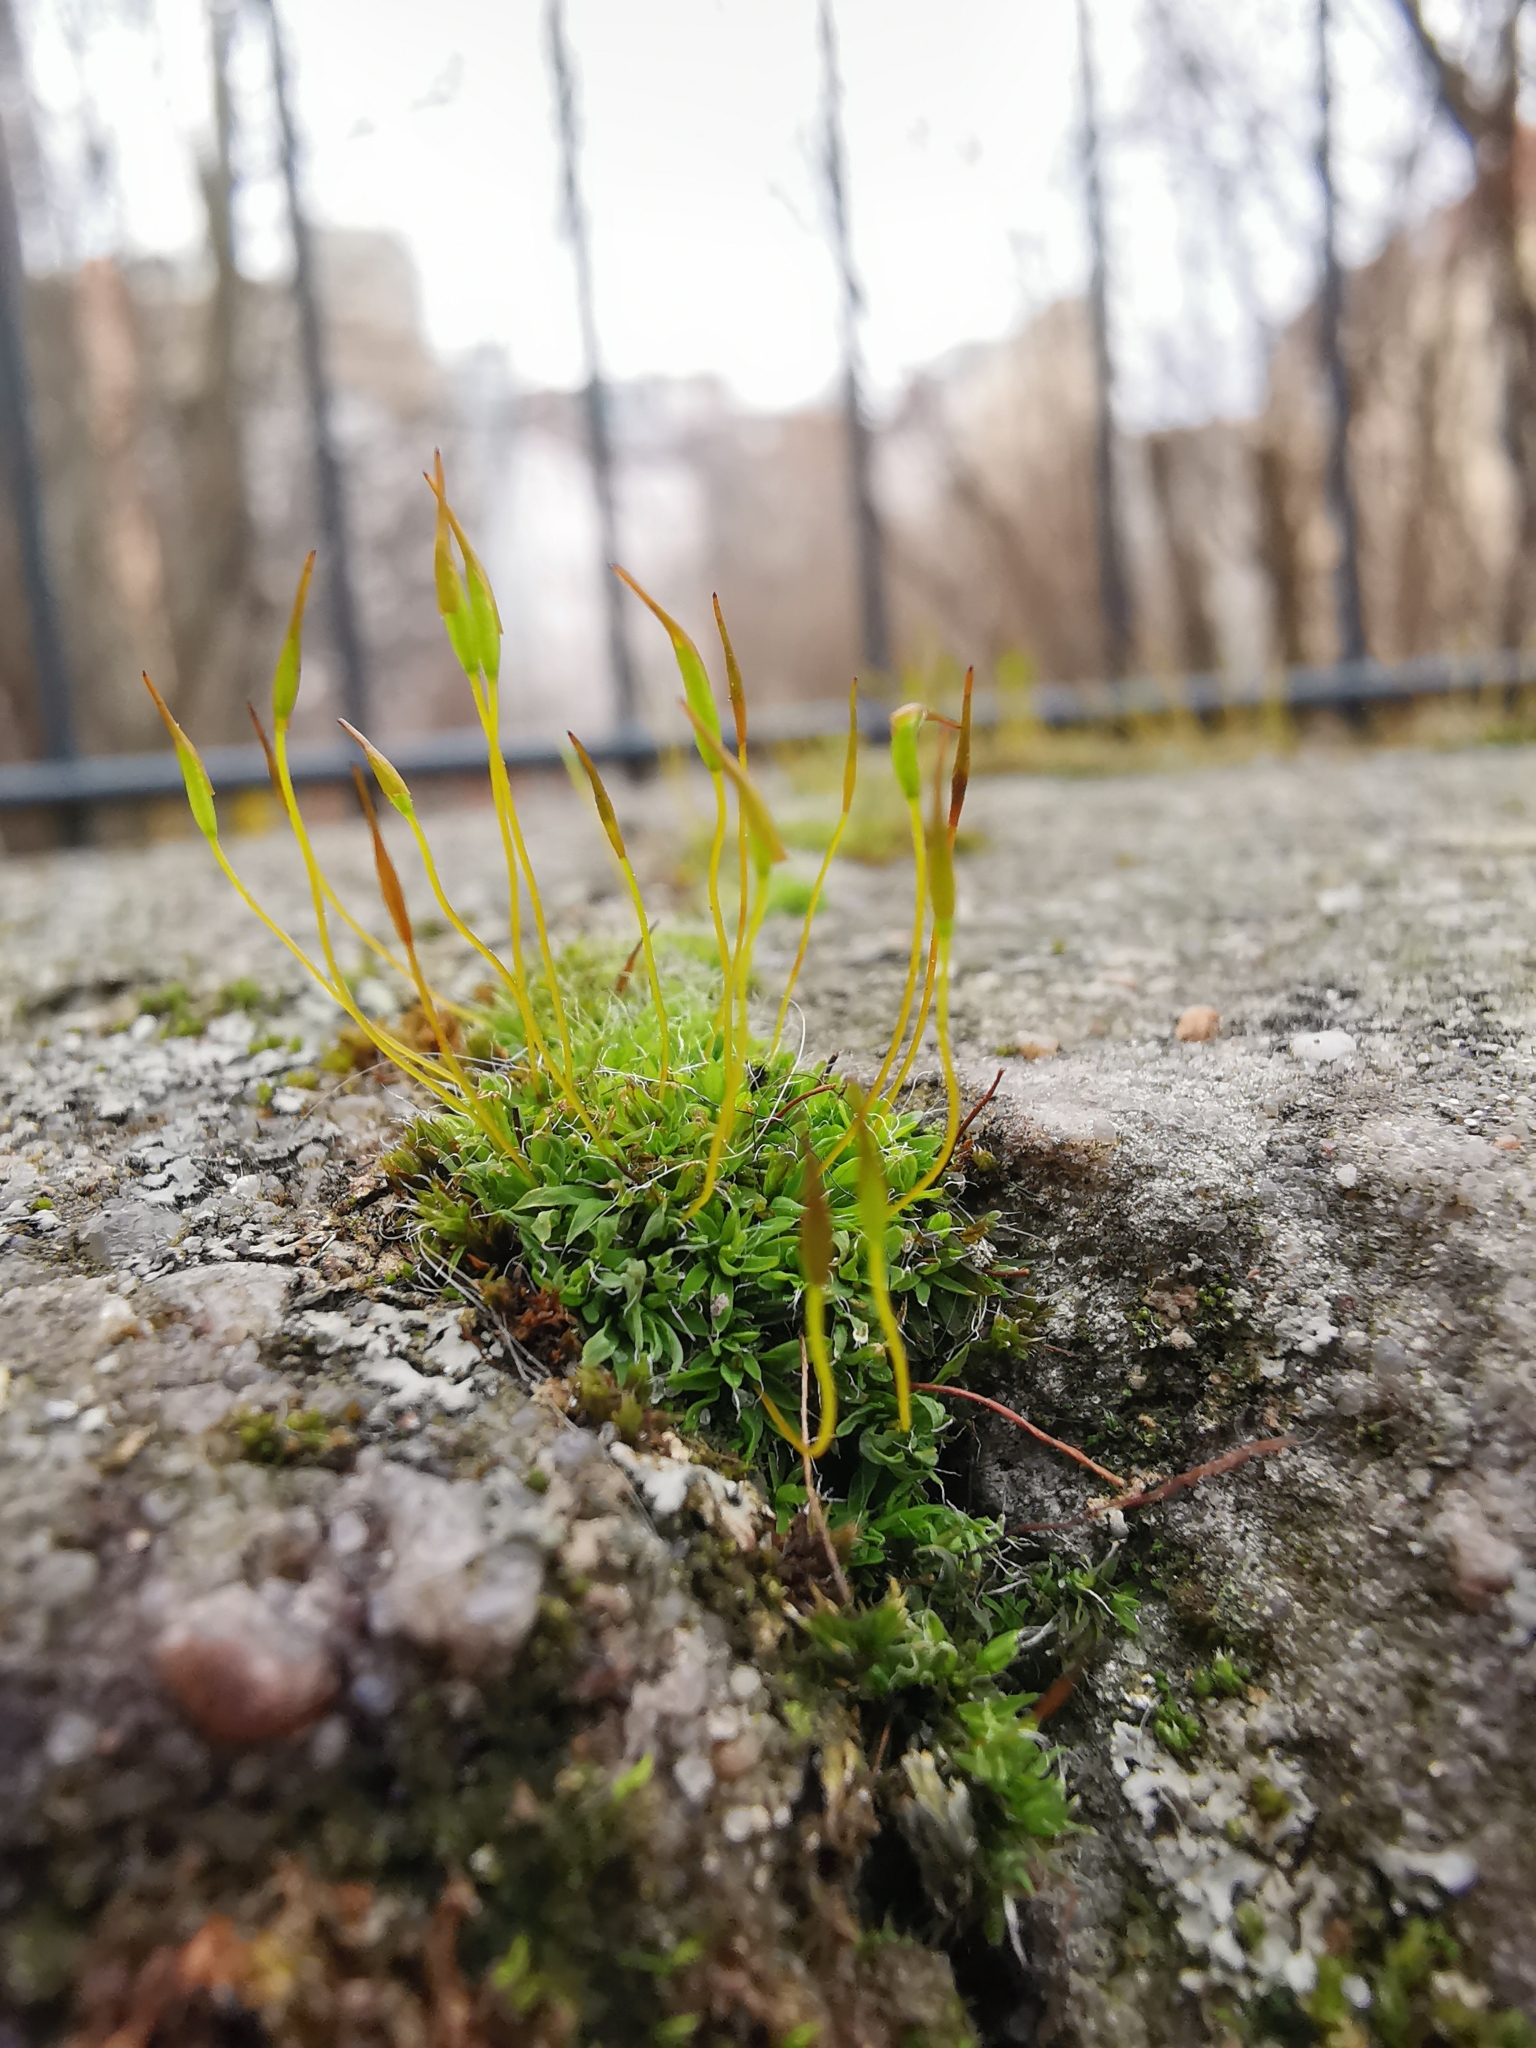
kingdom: Plantae
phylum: Bryophyta
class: Bryopsida
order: Pottiales
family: Pottiaceae
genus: Tortula
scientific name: Tortula muralis
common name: Wall screw-moss
